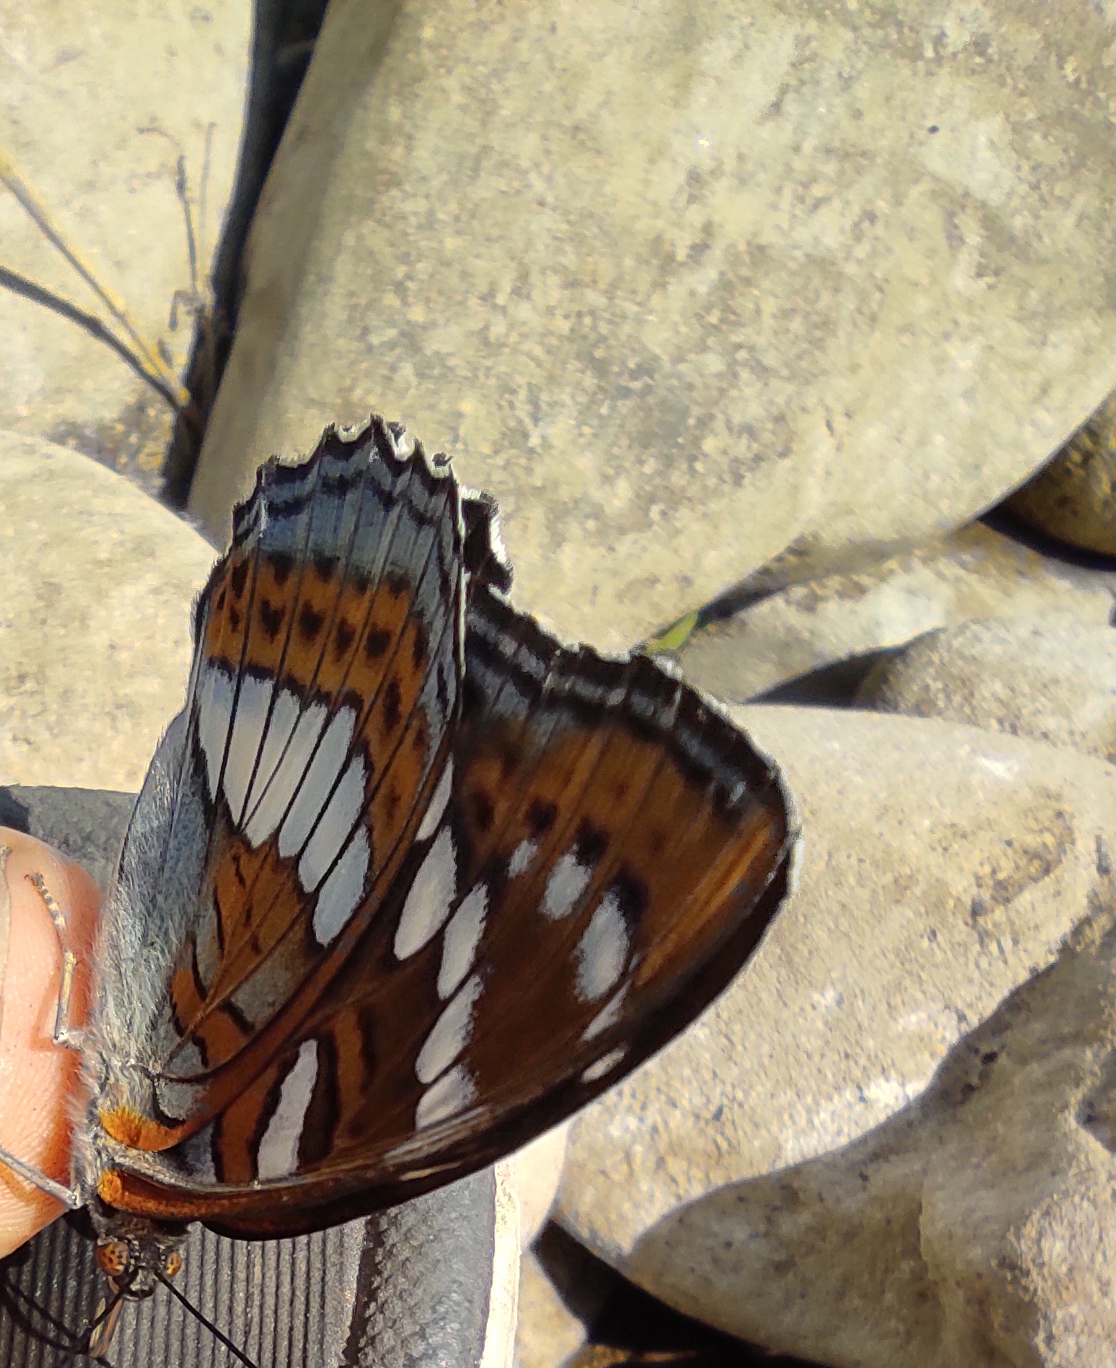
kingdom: Animalia
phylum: Arthropoda
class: Insecta
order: Lepidoptera
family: Nymphalidae
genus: Limenitis
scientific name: Limenitis populi
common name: Poplar admiral
